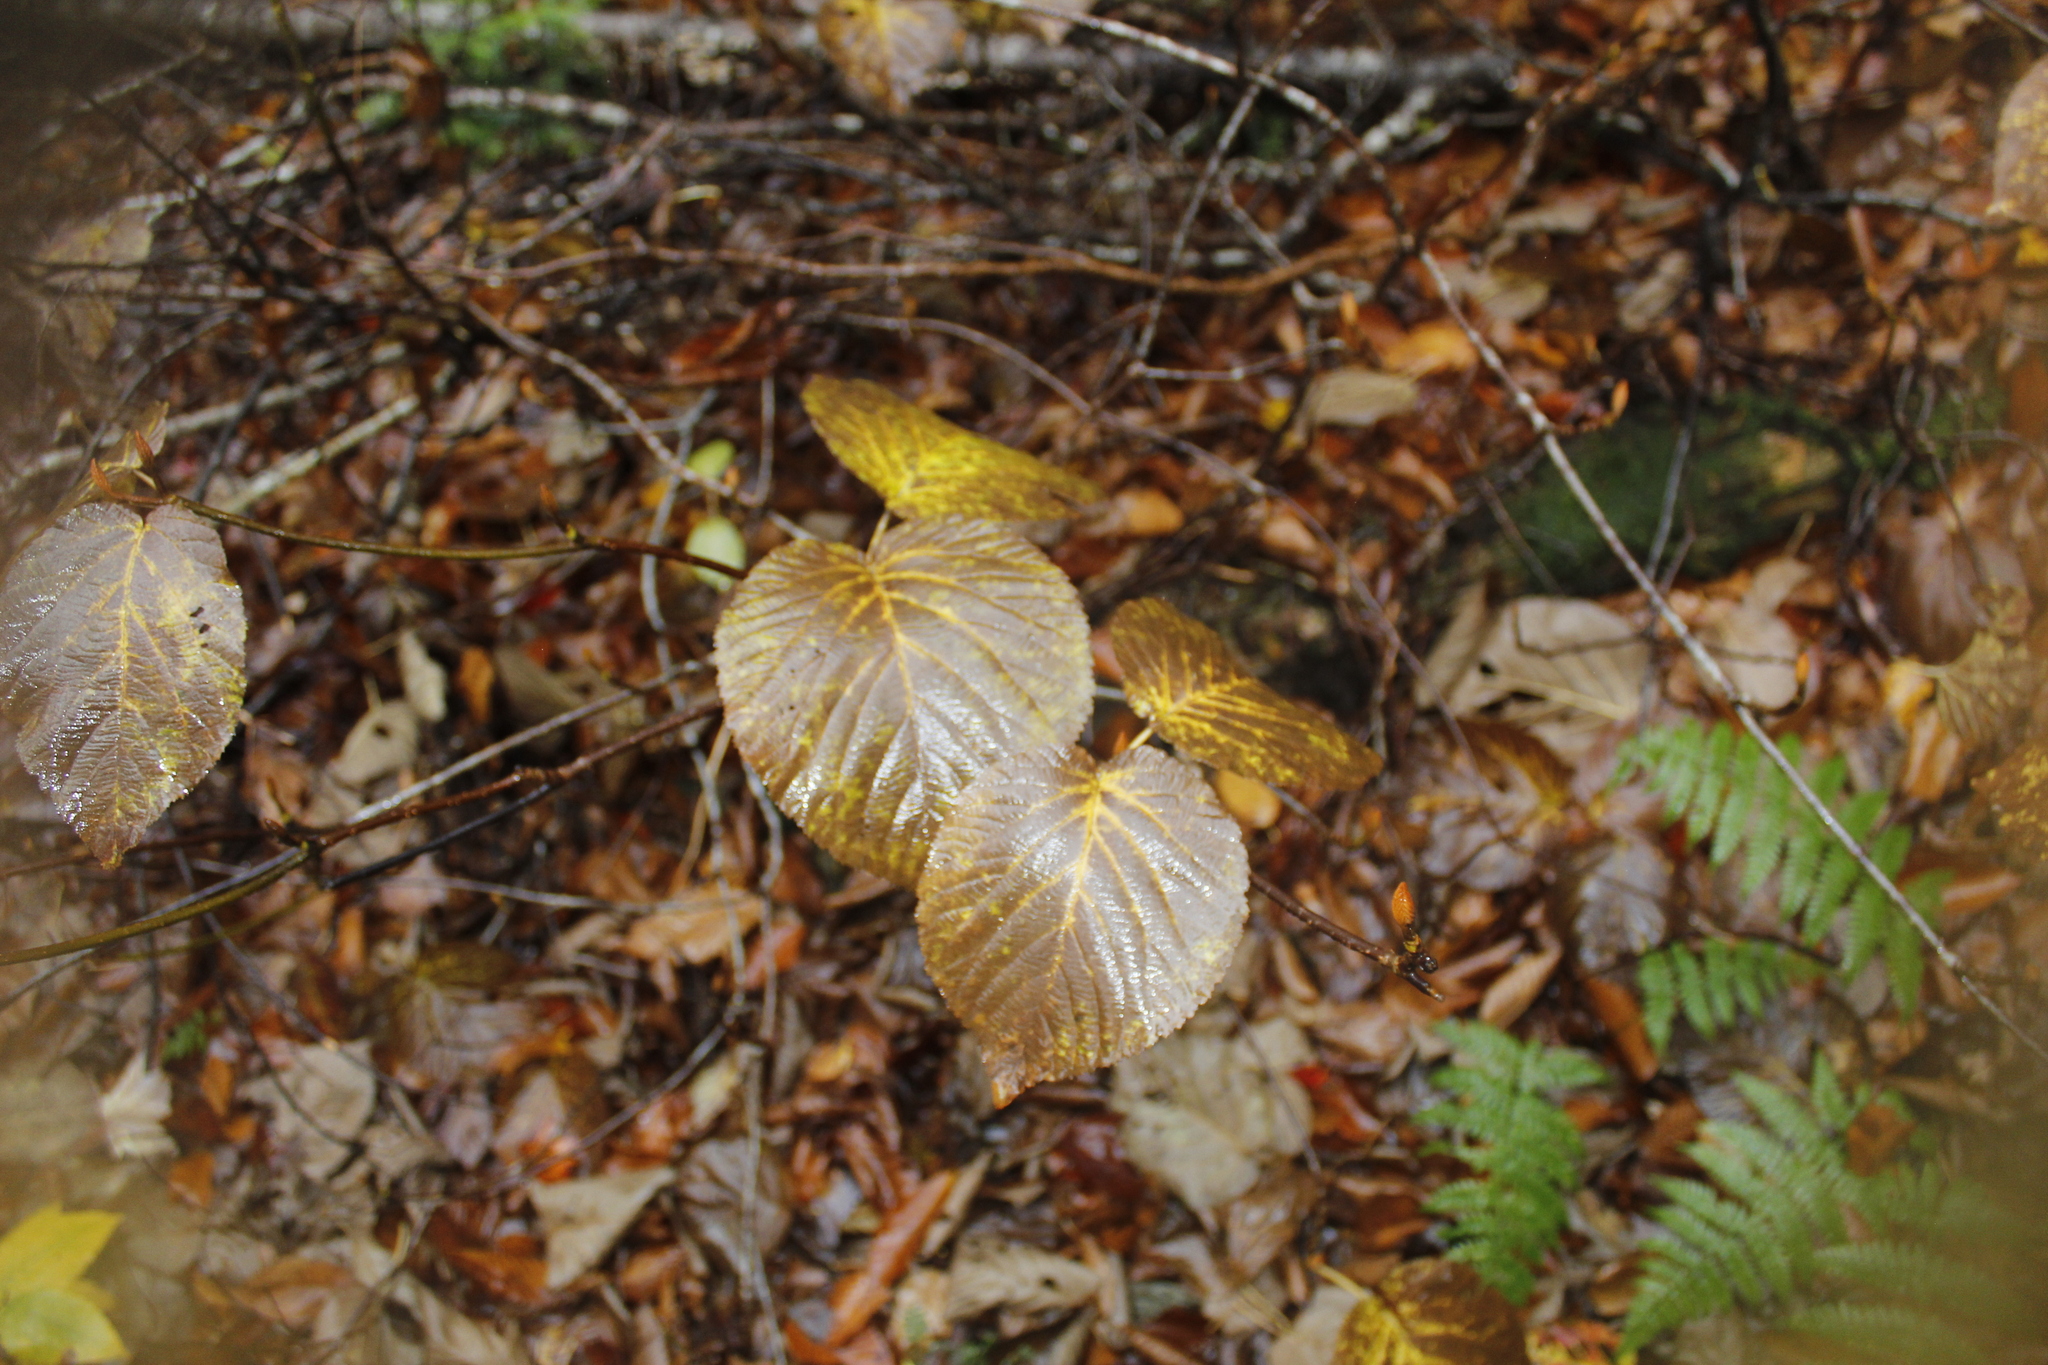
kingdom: Plantae
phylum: Tracheophyta
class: Magnoliopsida
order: Dipsacales
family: Viburnaceae
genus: Viburnum
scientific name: Viburnum lantanoides
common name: Hobblebush
